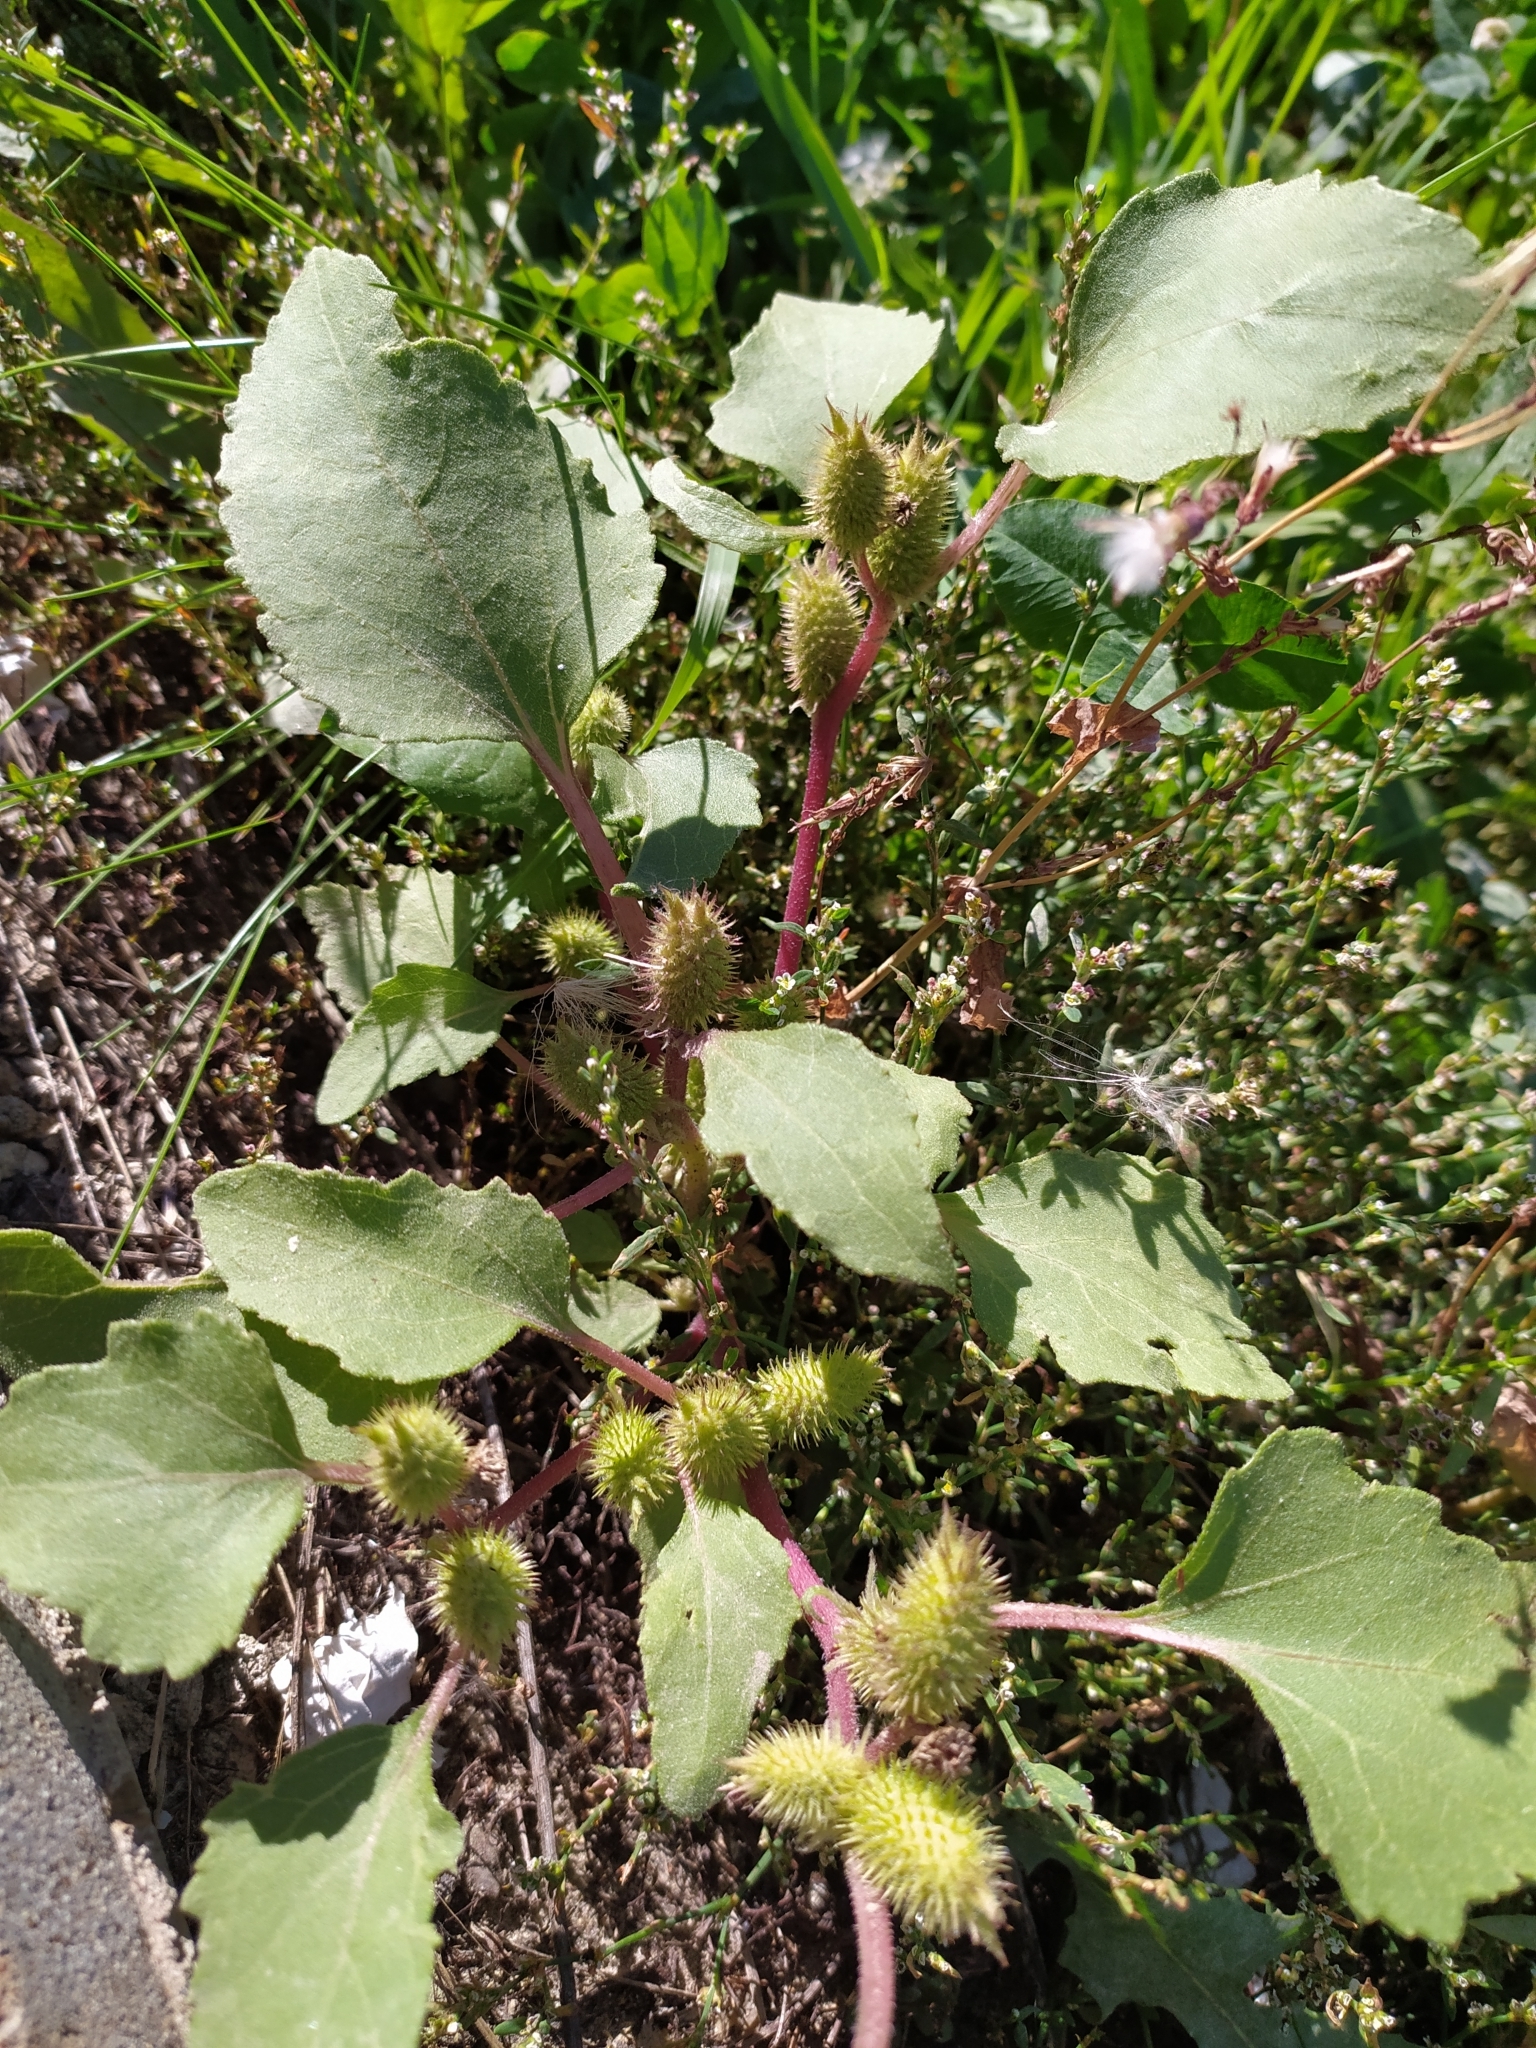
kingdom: Plantae
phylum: Tracheophyta
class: Magnoliopsida
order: Asterales
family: Asteraceae
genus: Xanthium
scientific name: Xanthium orientale
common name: Californian burr
